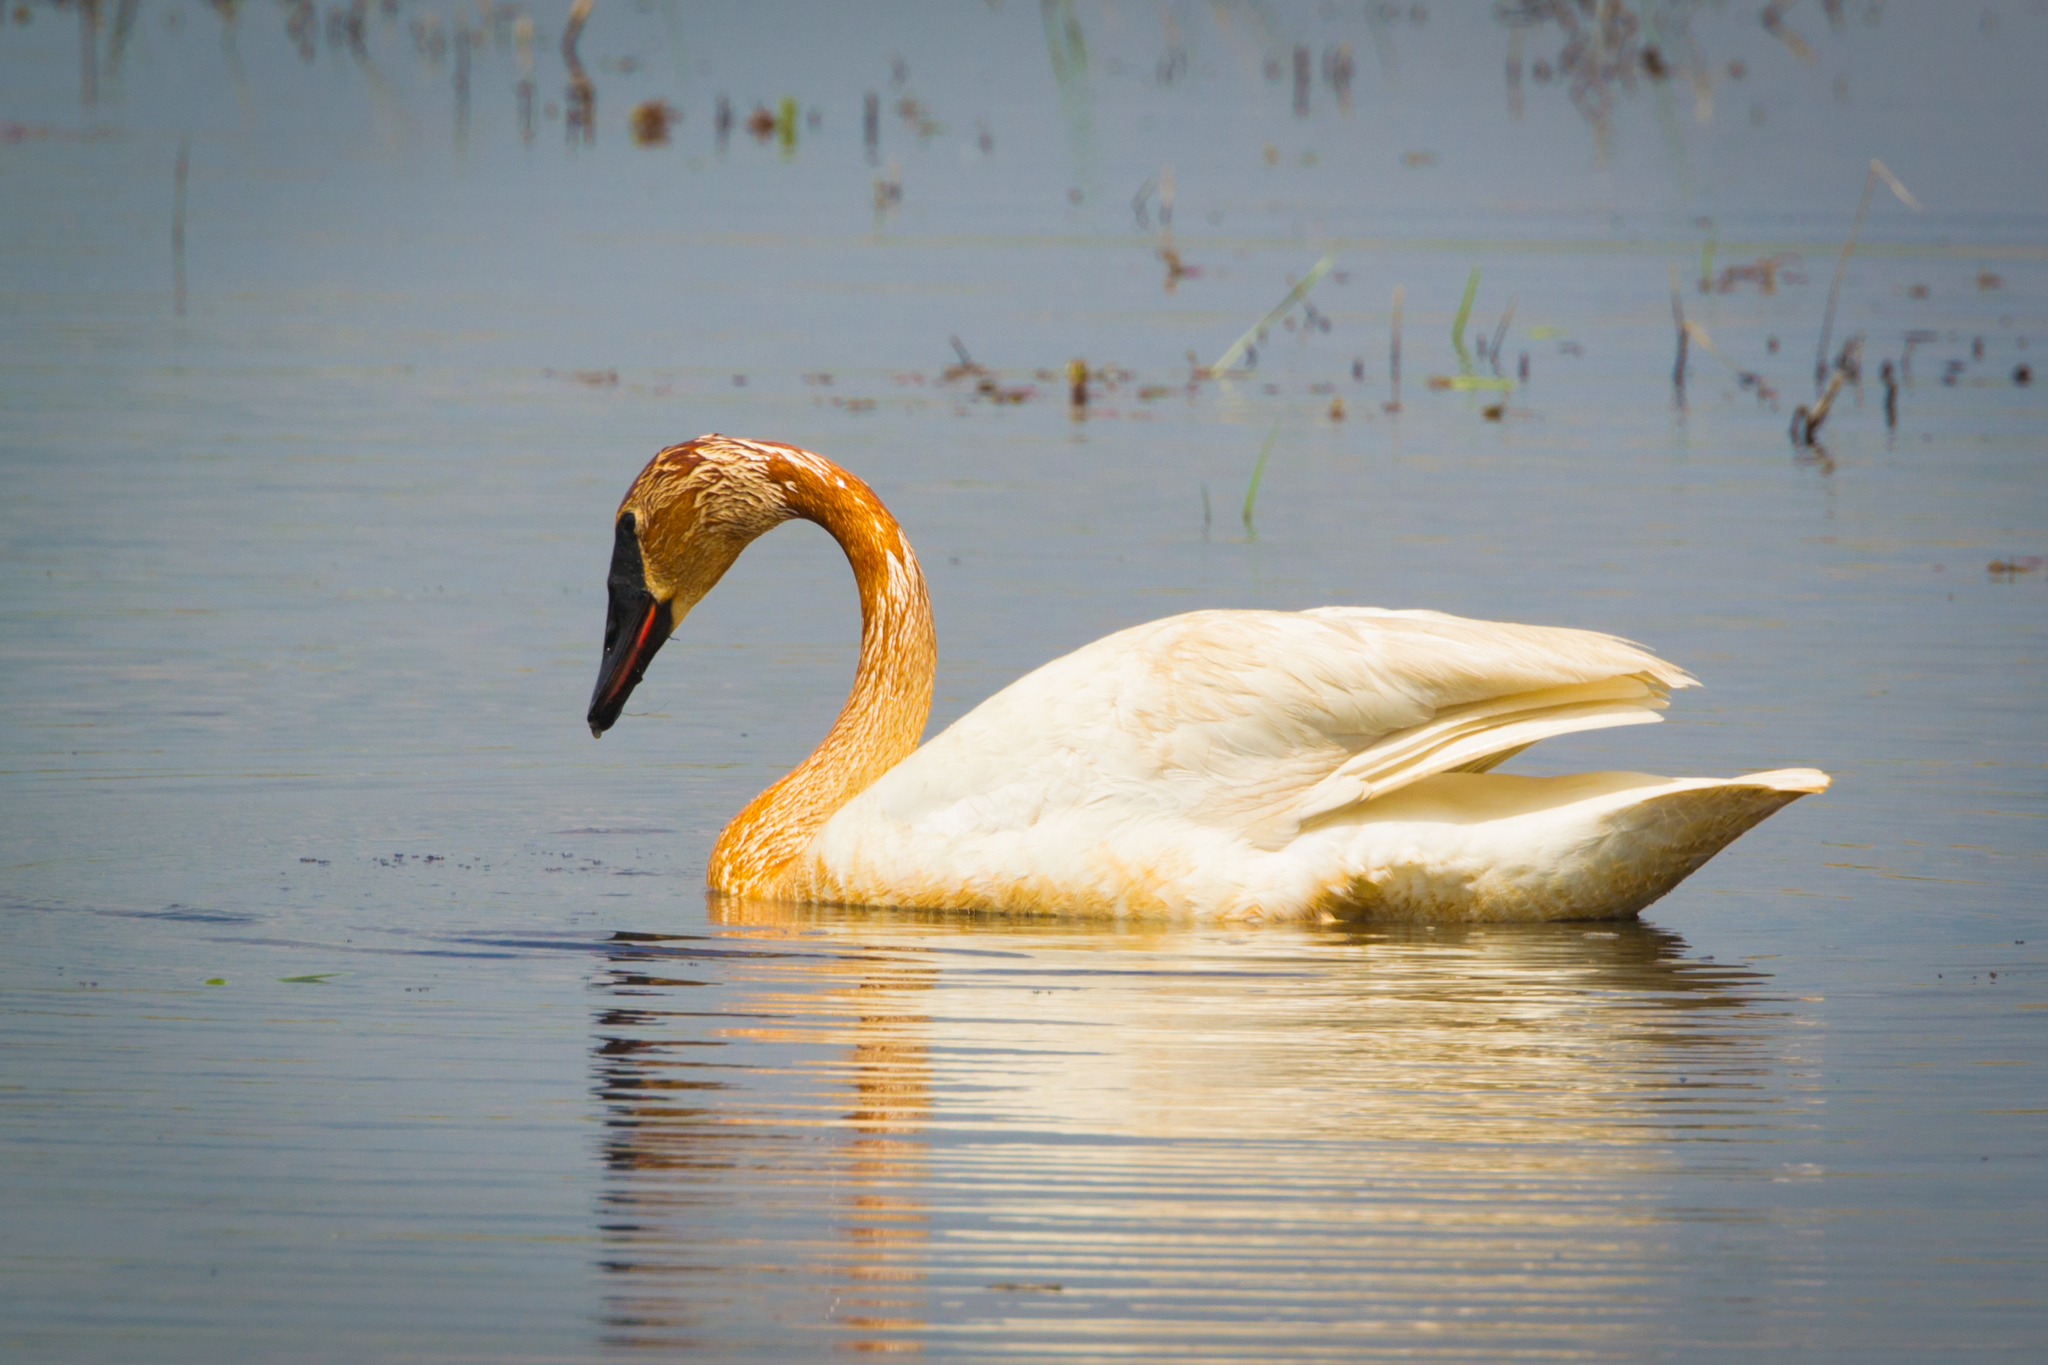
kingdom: Animalia
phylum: Chordata
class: Aves
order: Anseriformes
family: Anatidae
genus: Cygnus
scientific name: Cygnus buccinator
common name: Trumpeter swan
